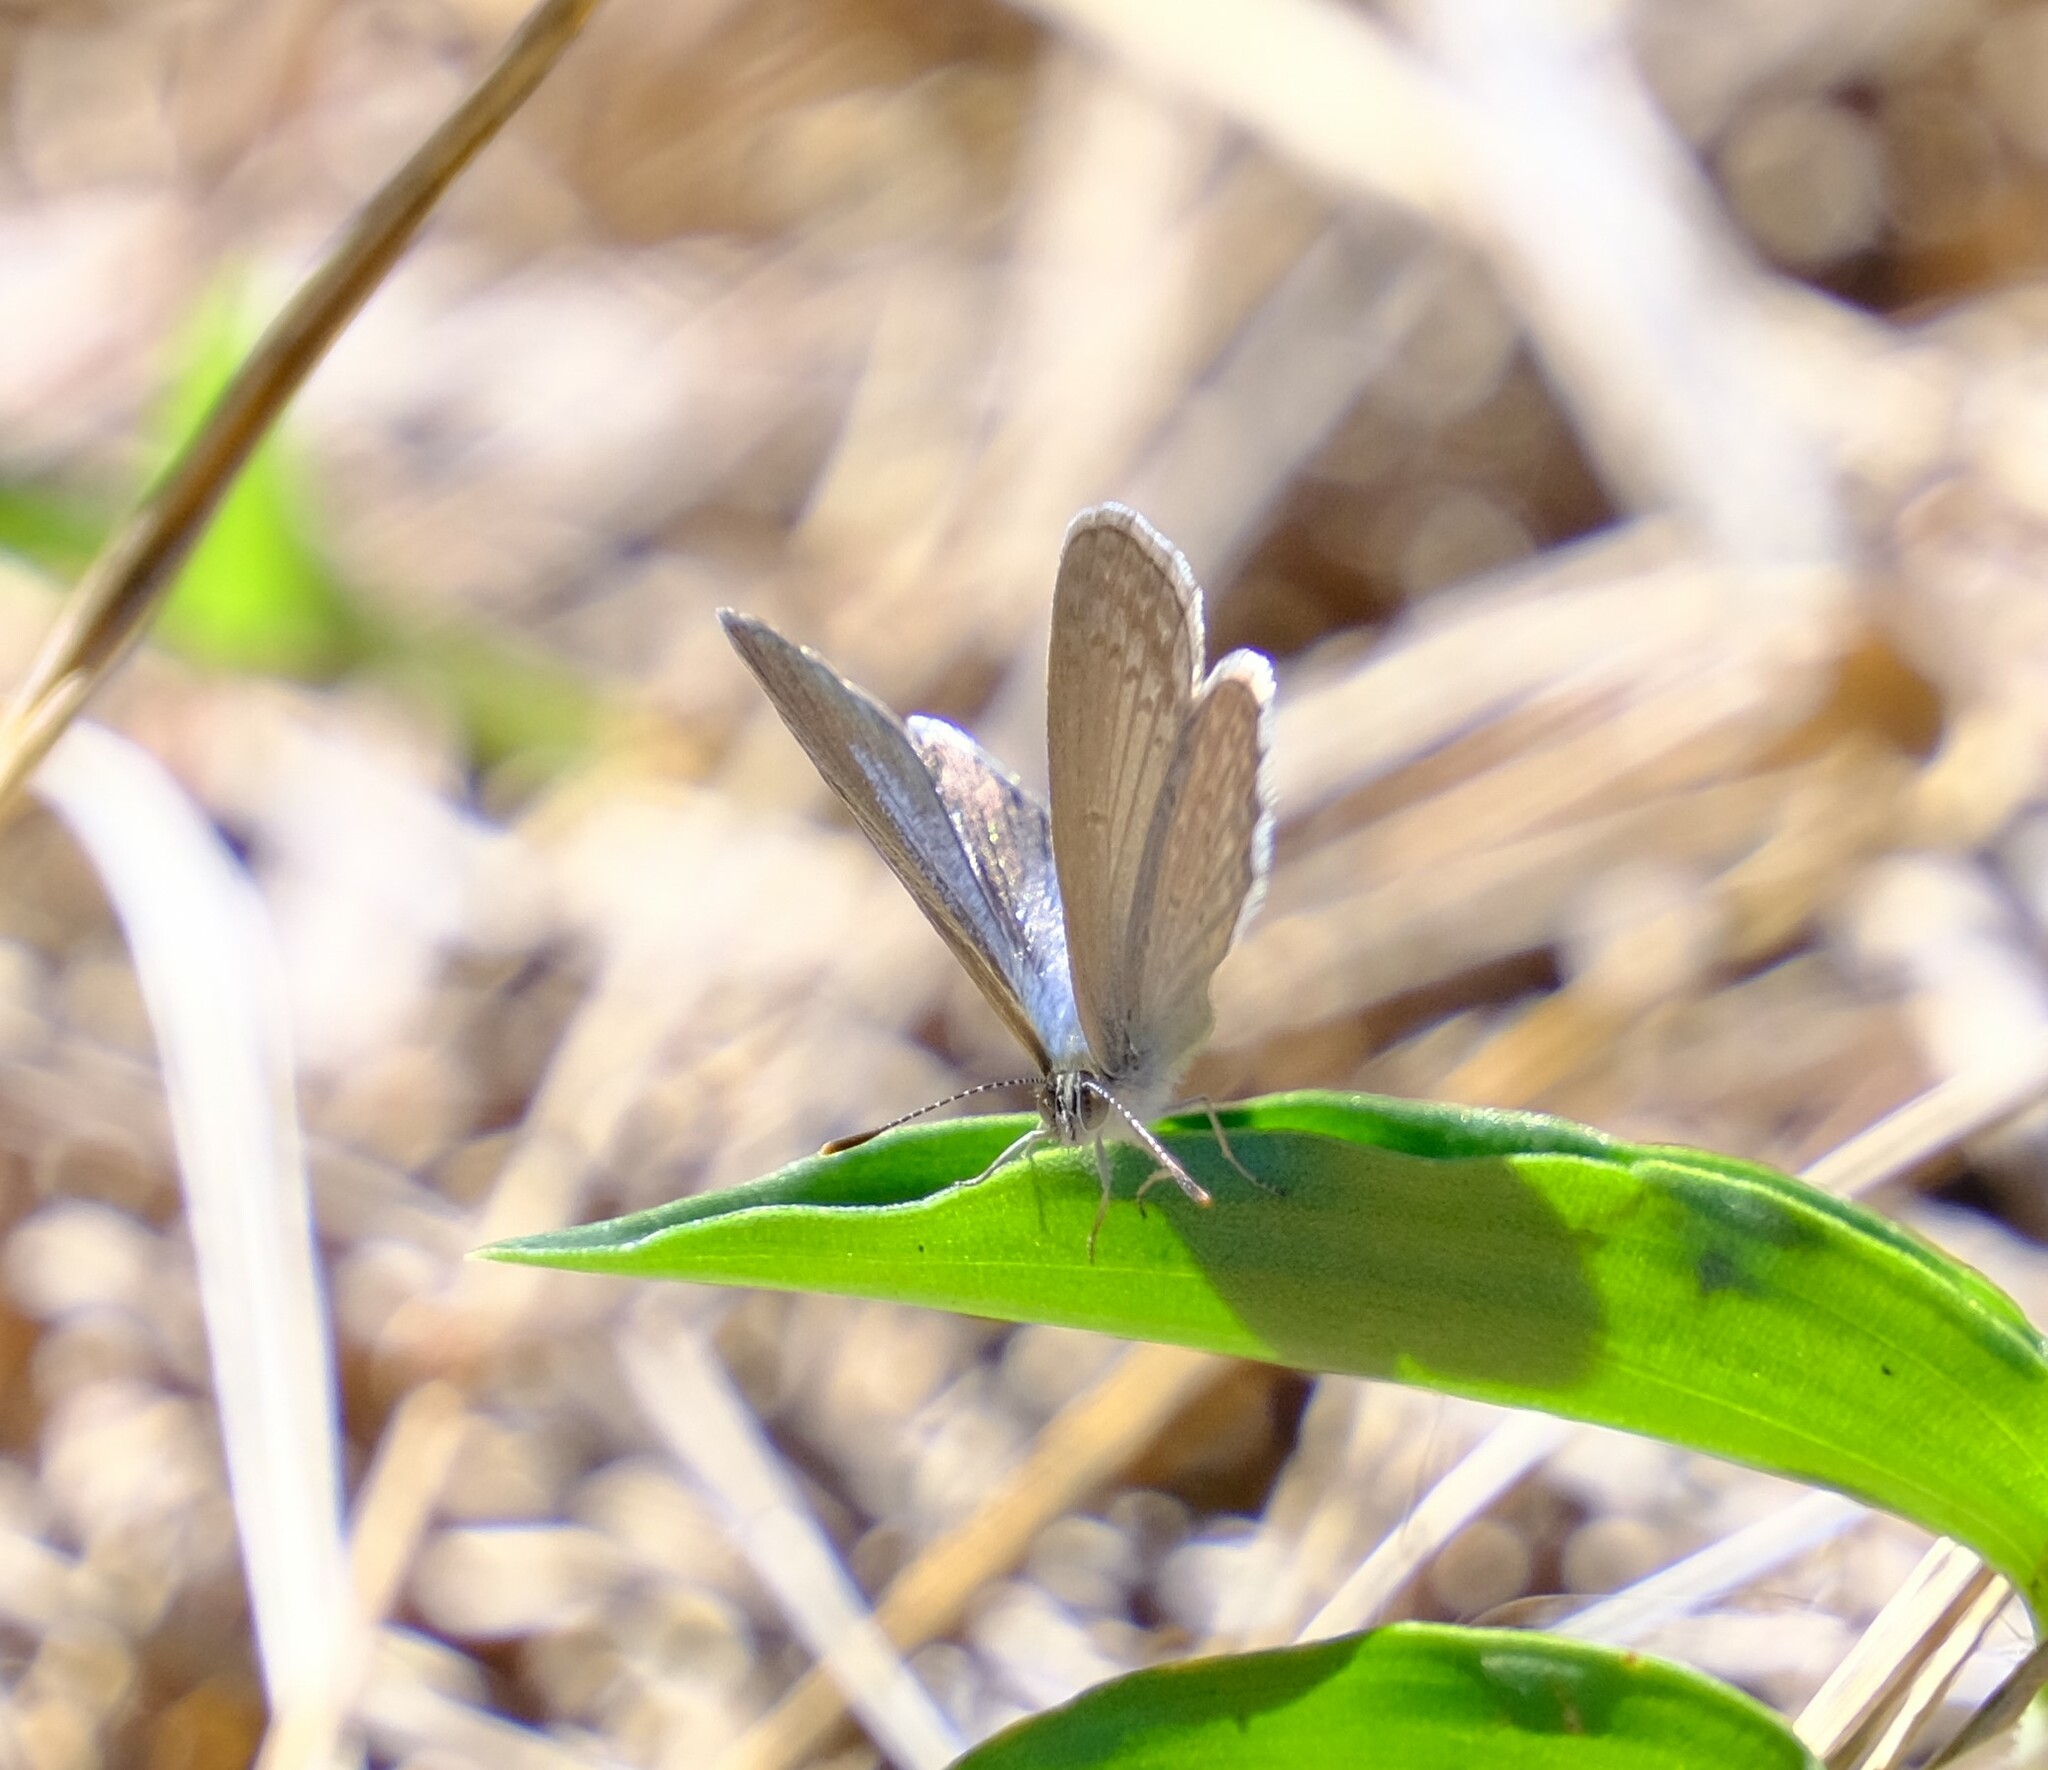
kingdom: Animalia
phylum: Arthropoda
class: Insecta
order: Lepidoptera
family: Lycaenidae
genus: Zizina
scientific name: Zizina labradus
